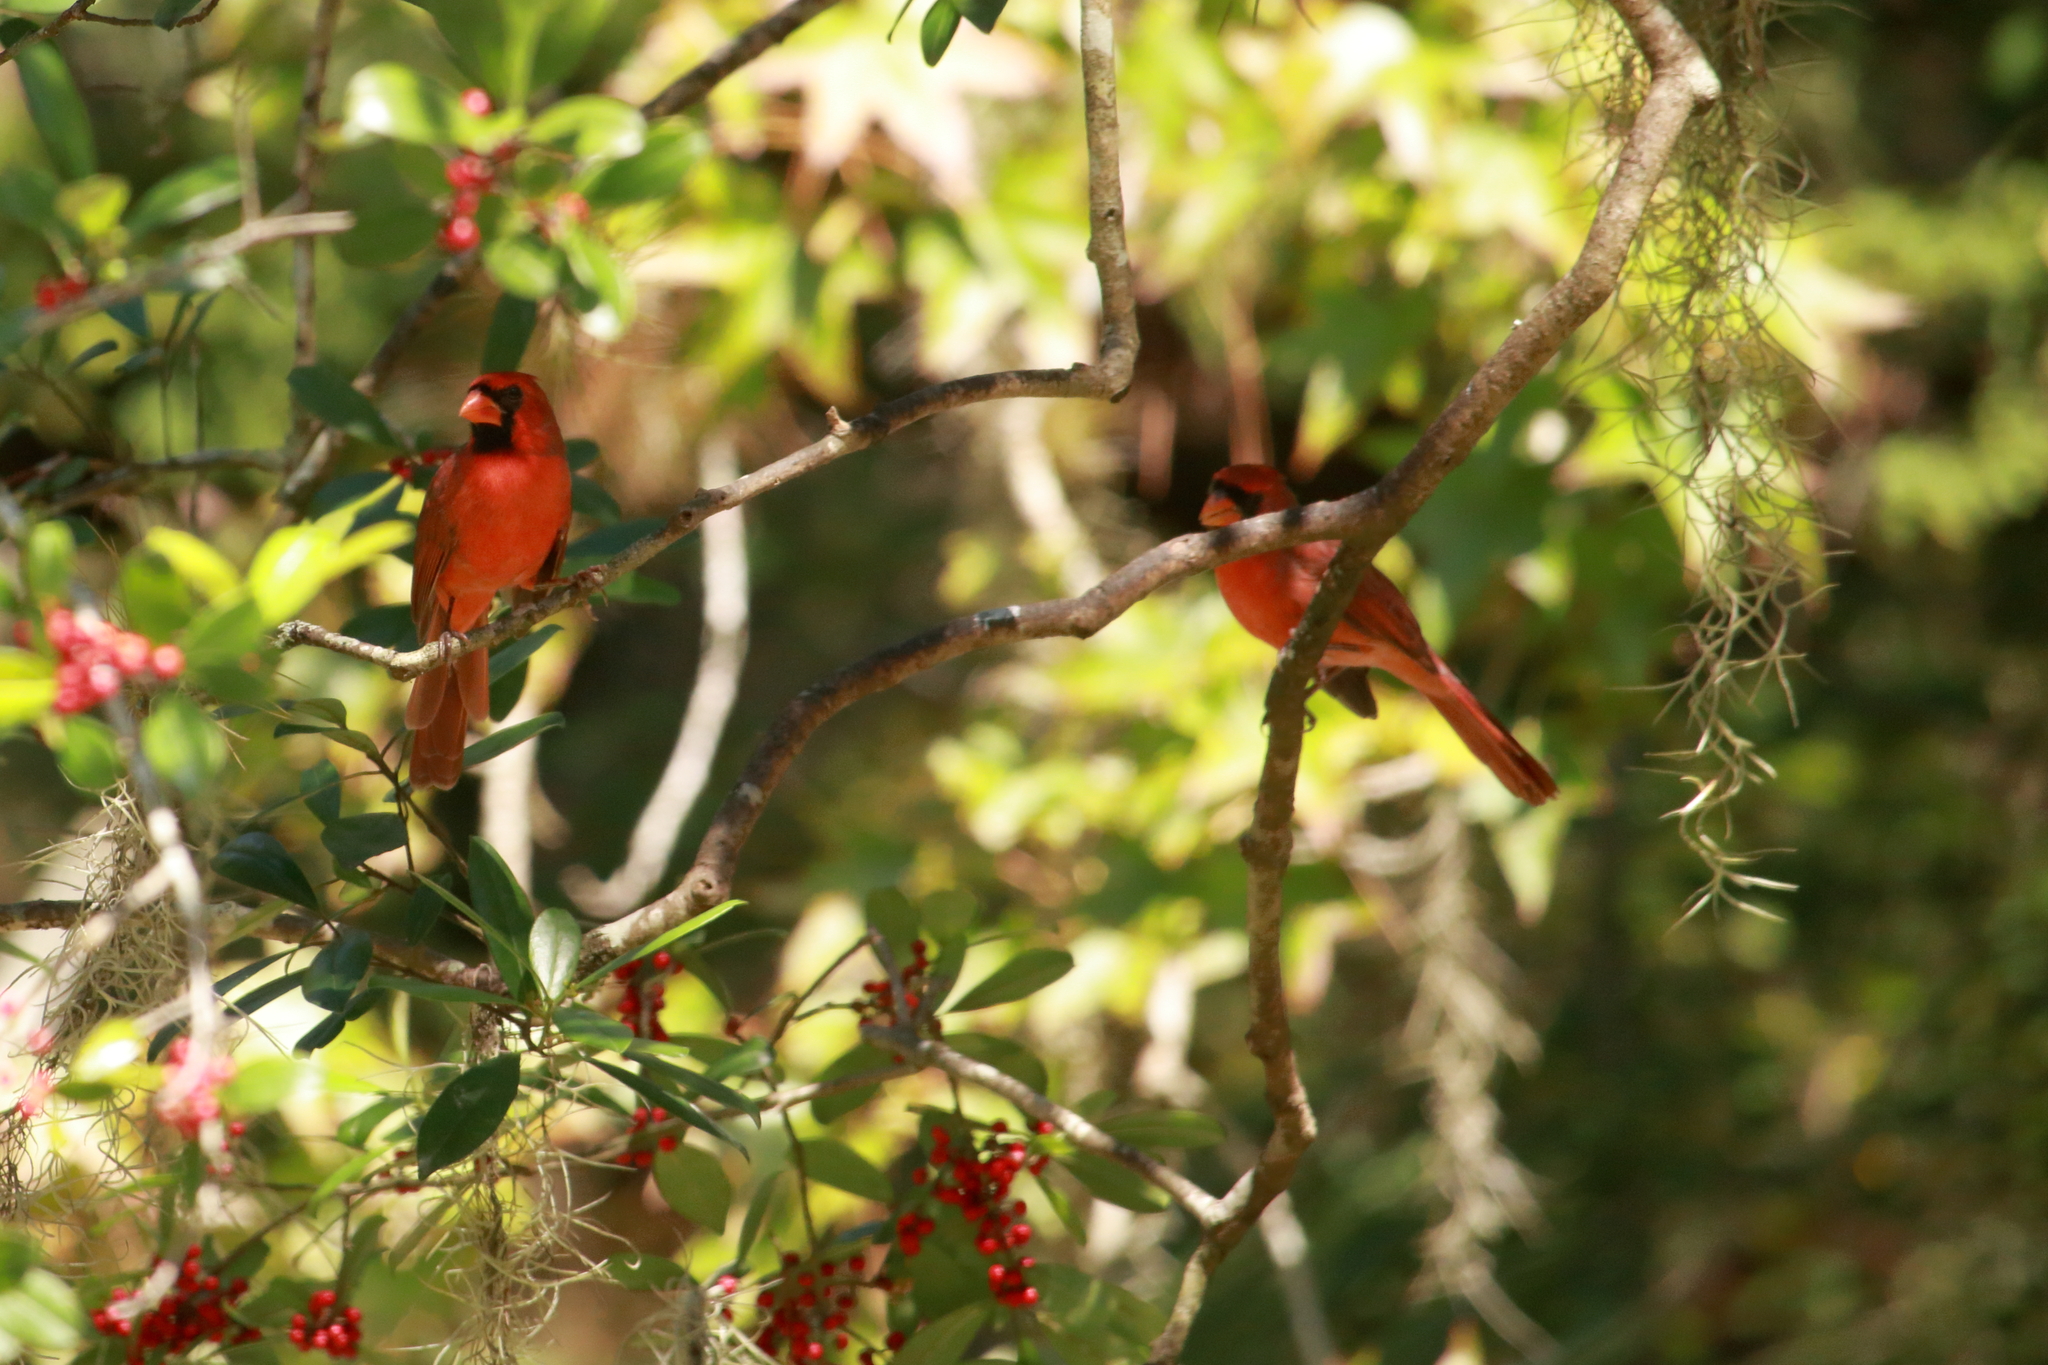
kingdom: Animalia
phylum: Chordata
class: Aves
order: Passeriformes
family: Cardinalidae
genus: Cardinalis
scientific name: Cardinalis cardinalis
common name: Northern cardinal
